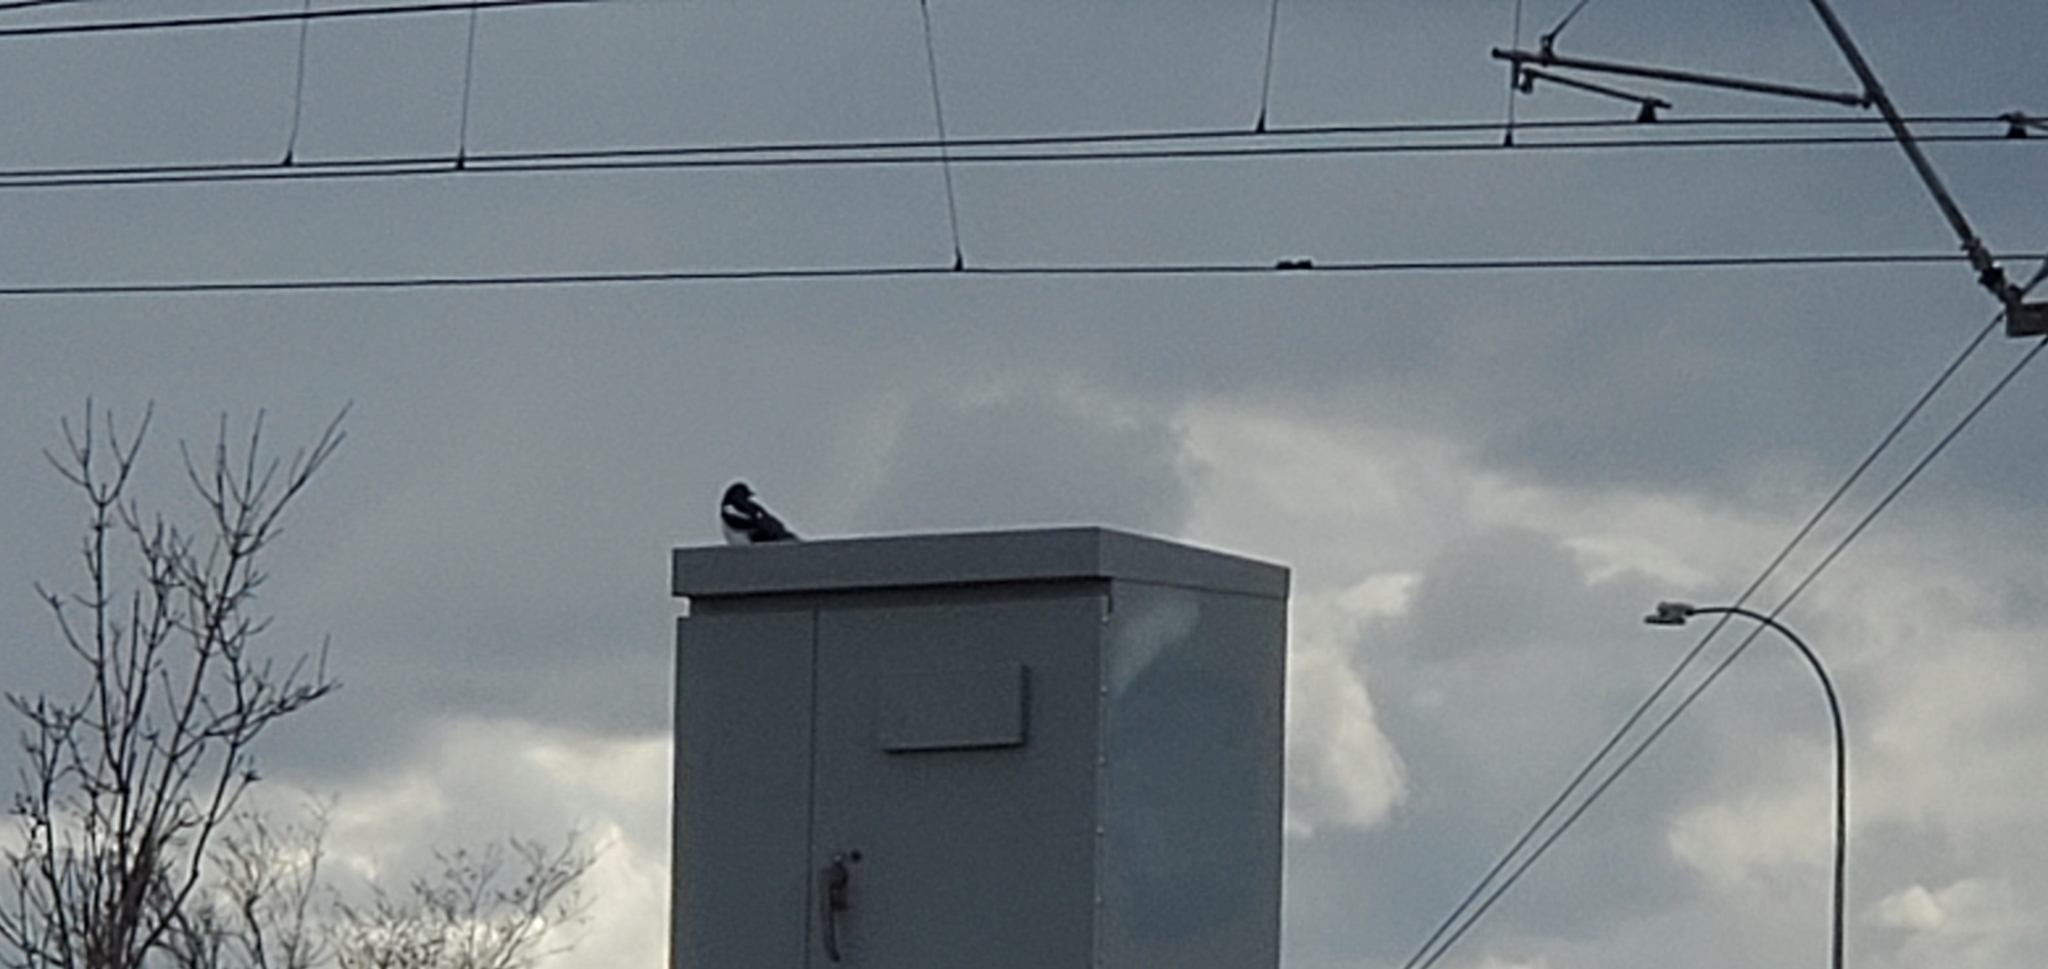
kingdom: Animalia
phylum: Chordata
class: Aves
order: Passeriformes
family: Corvidae
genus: Pica
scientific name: Pica hudsonia
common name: Black-billed magpie
